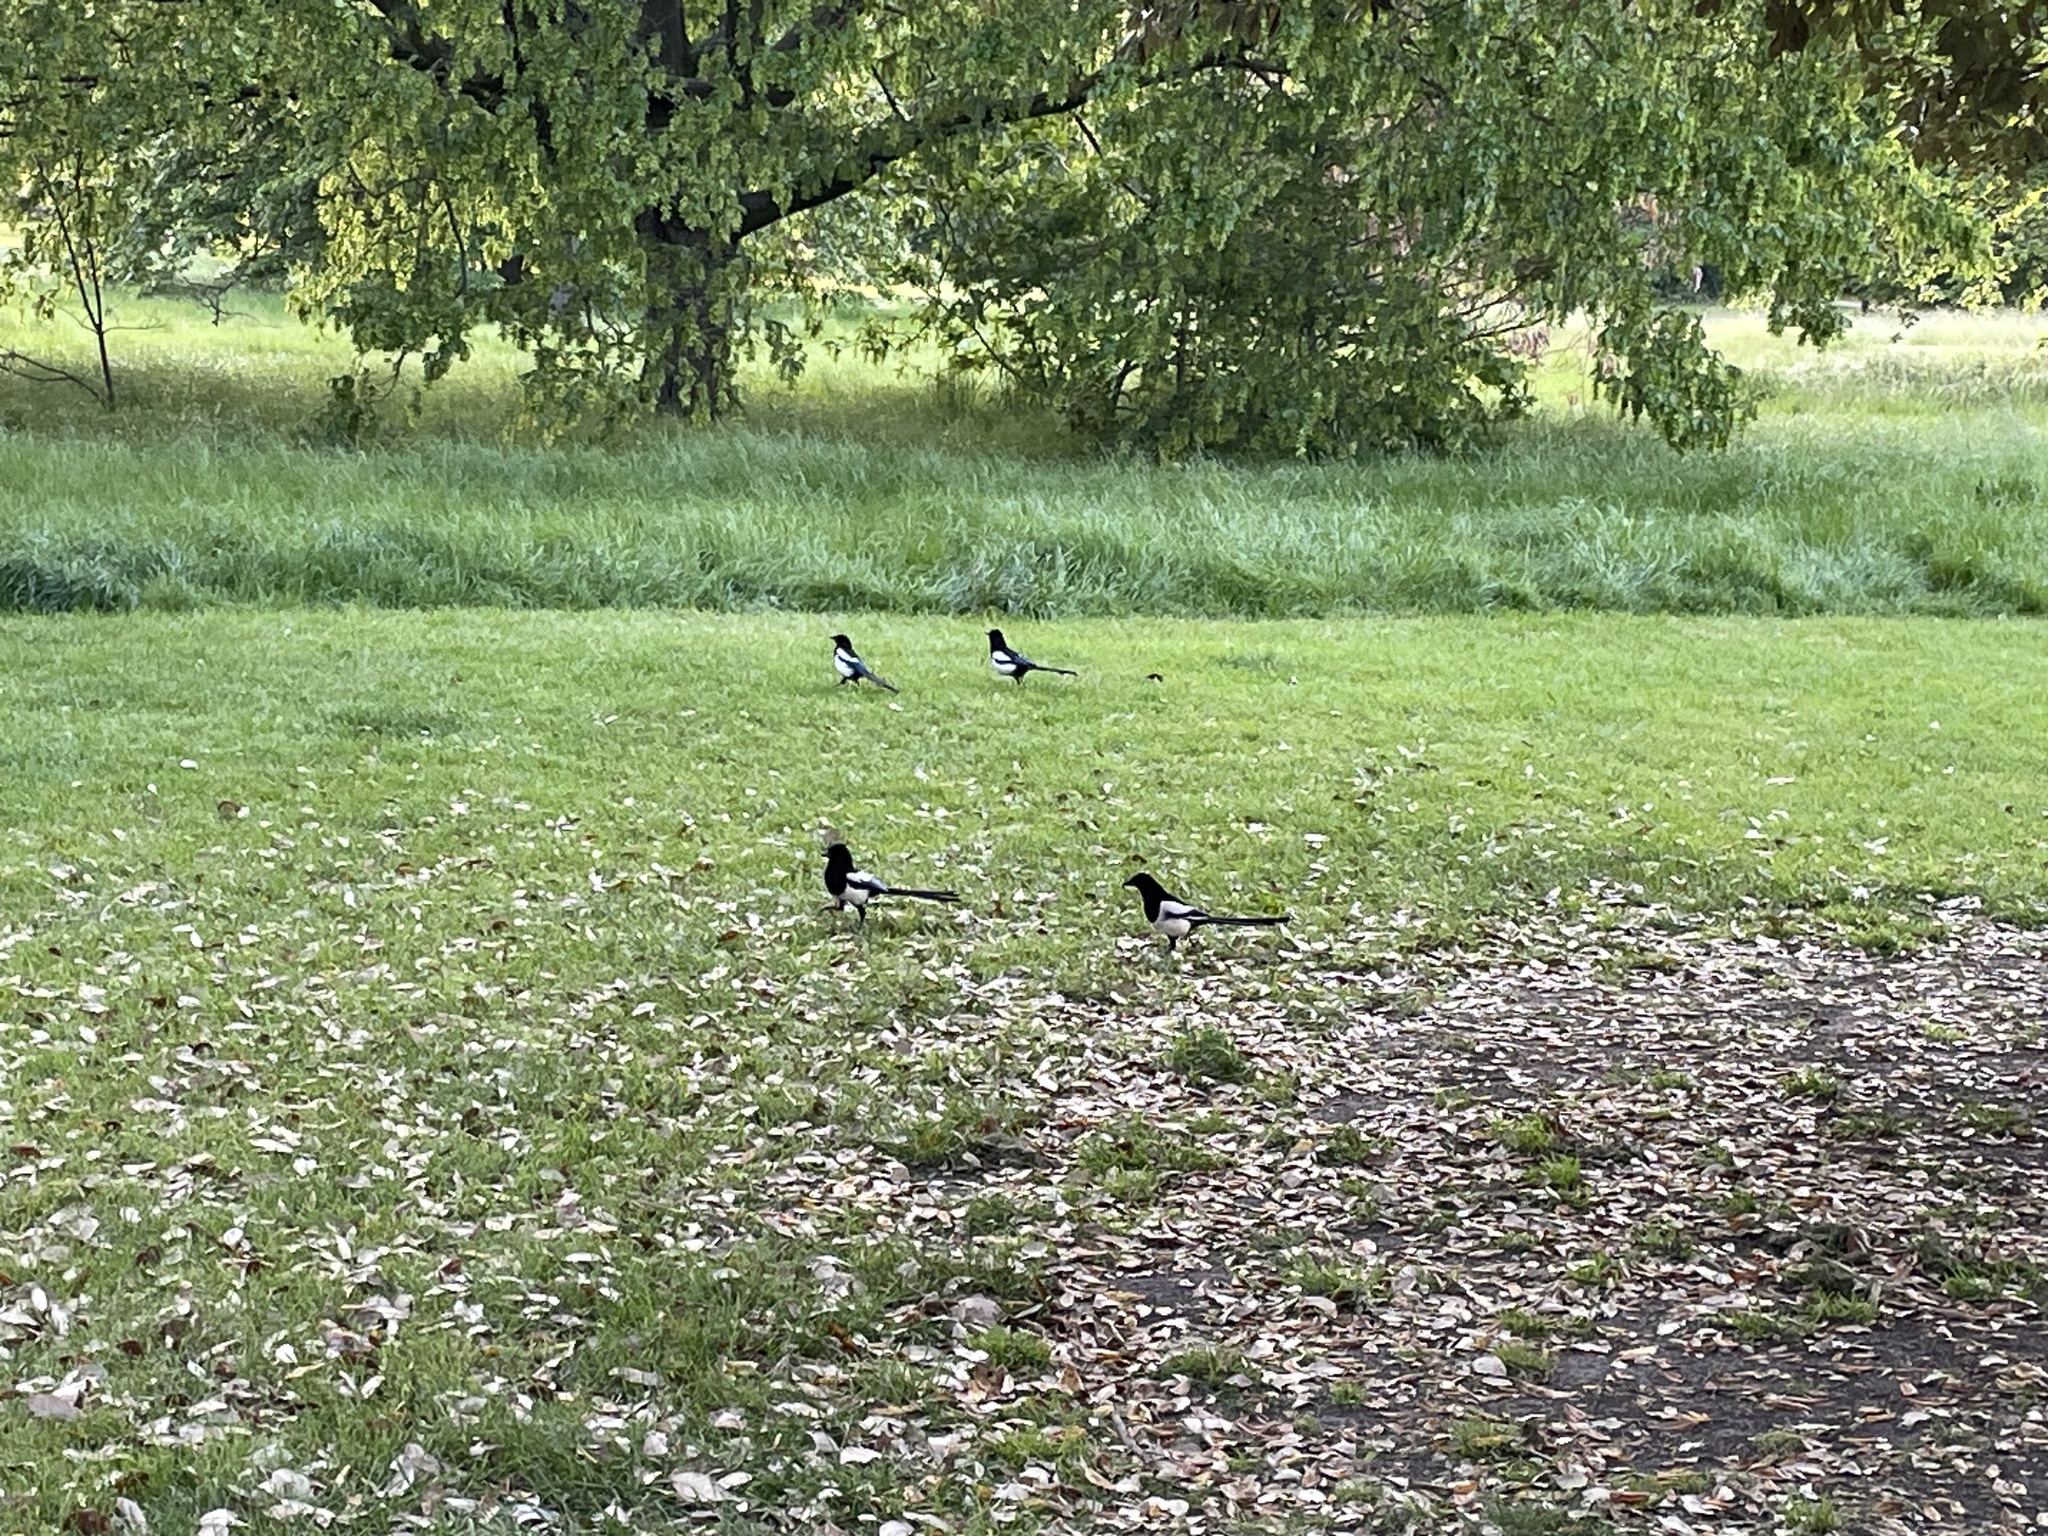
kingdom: Animalia
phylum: Chordata
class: Aves
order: Passeriformes
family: Corvidae
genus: Pica
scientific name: Pica pica
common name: Eurasian magpie
